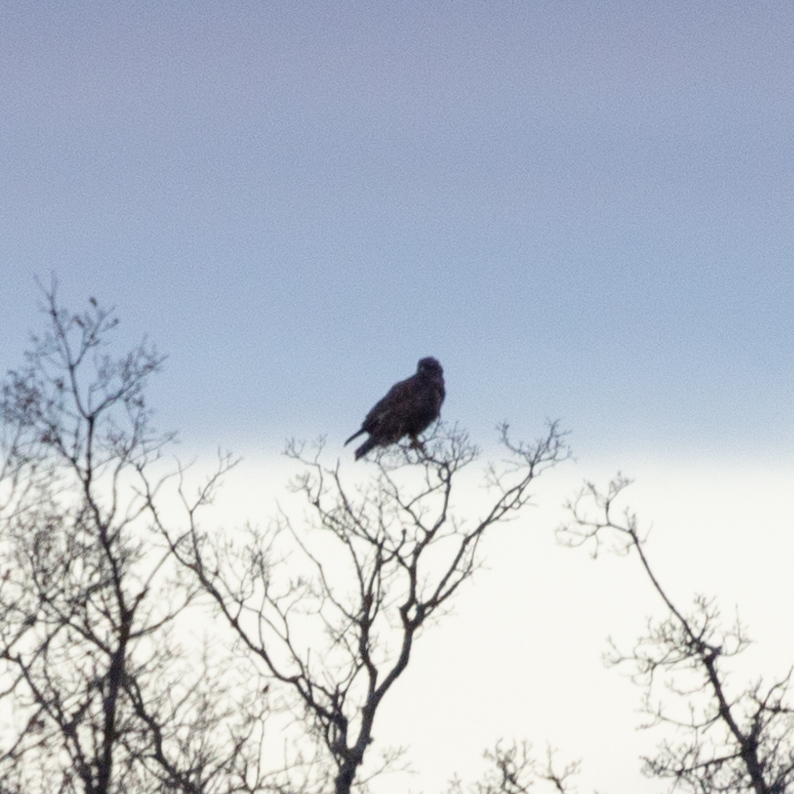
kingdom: Animalia
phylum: Chordata
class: Aves
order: Accipitriformes
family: Accipitridae
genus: Buteo
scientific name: Buteo buteo
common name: Common buzzard
